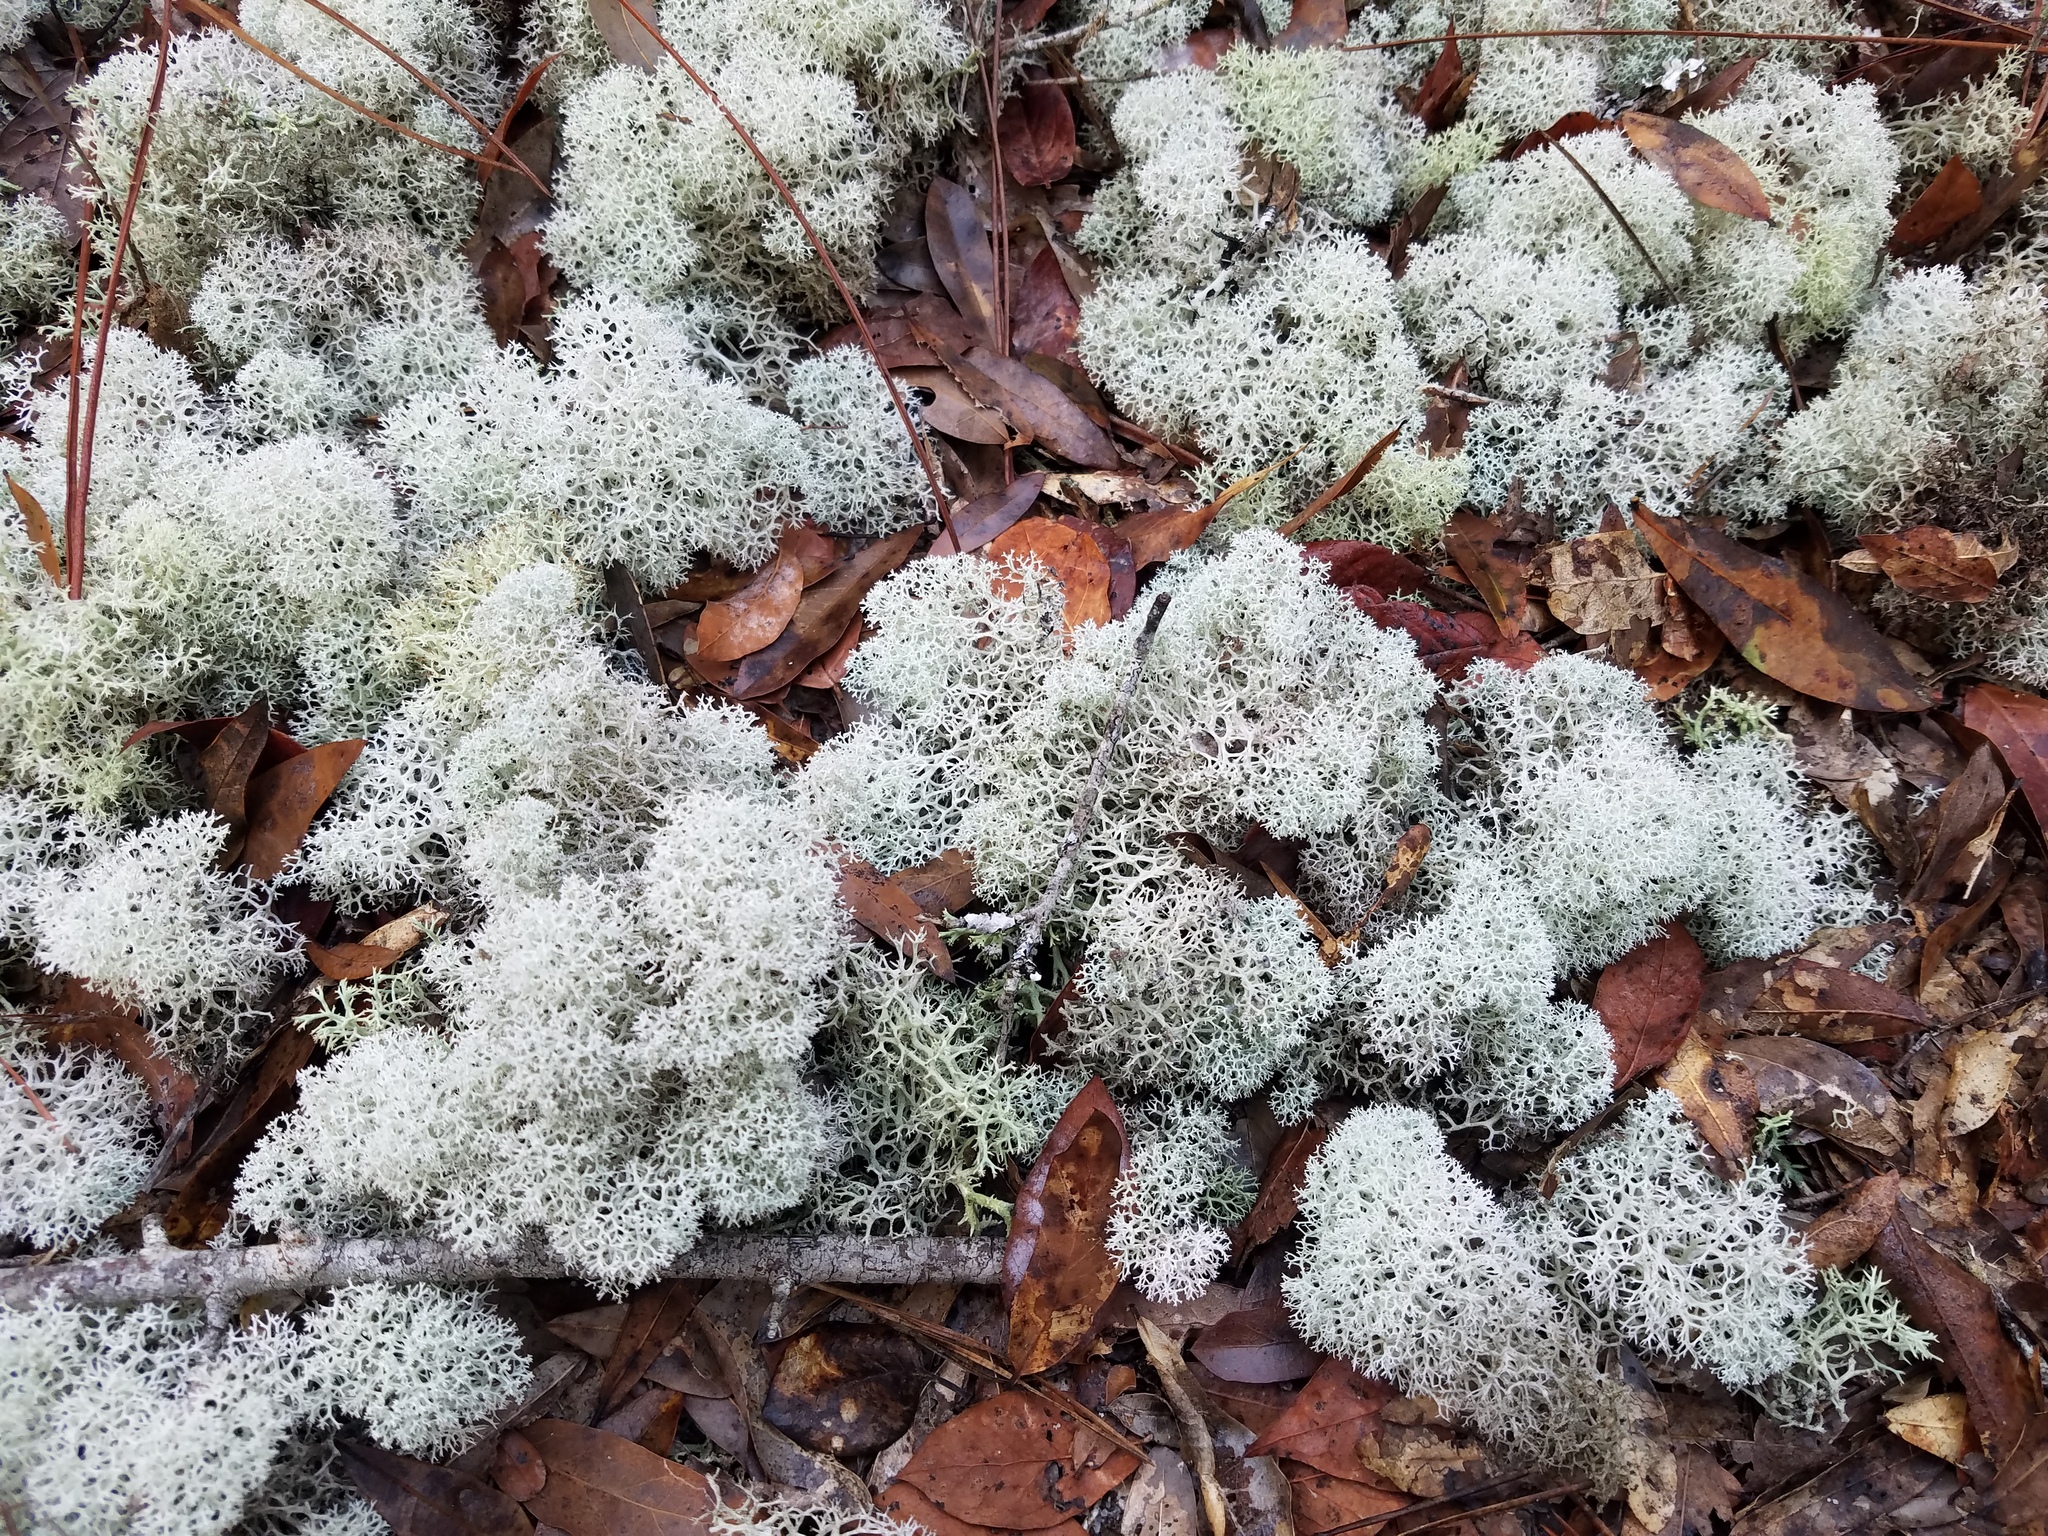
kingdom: Fungi
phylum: Ascomycota
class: Lecanoromycetes
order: Lecanorales
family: Cladoniaceae
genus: Cladonia
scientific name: Cladonia evansii
